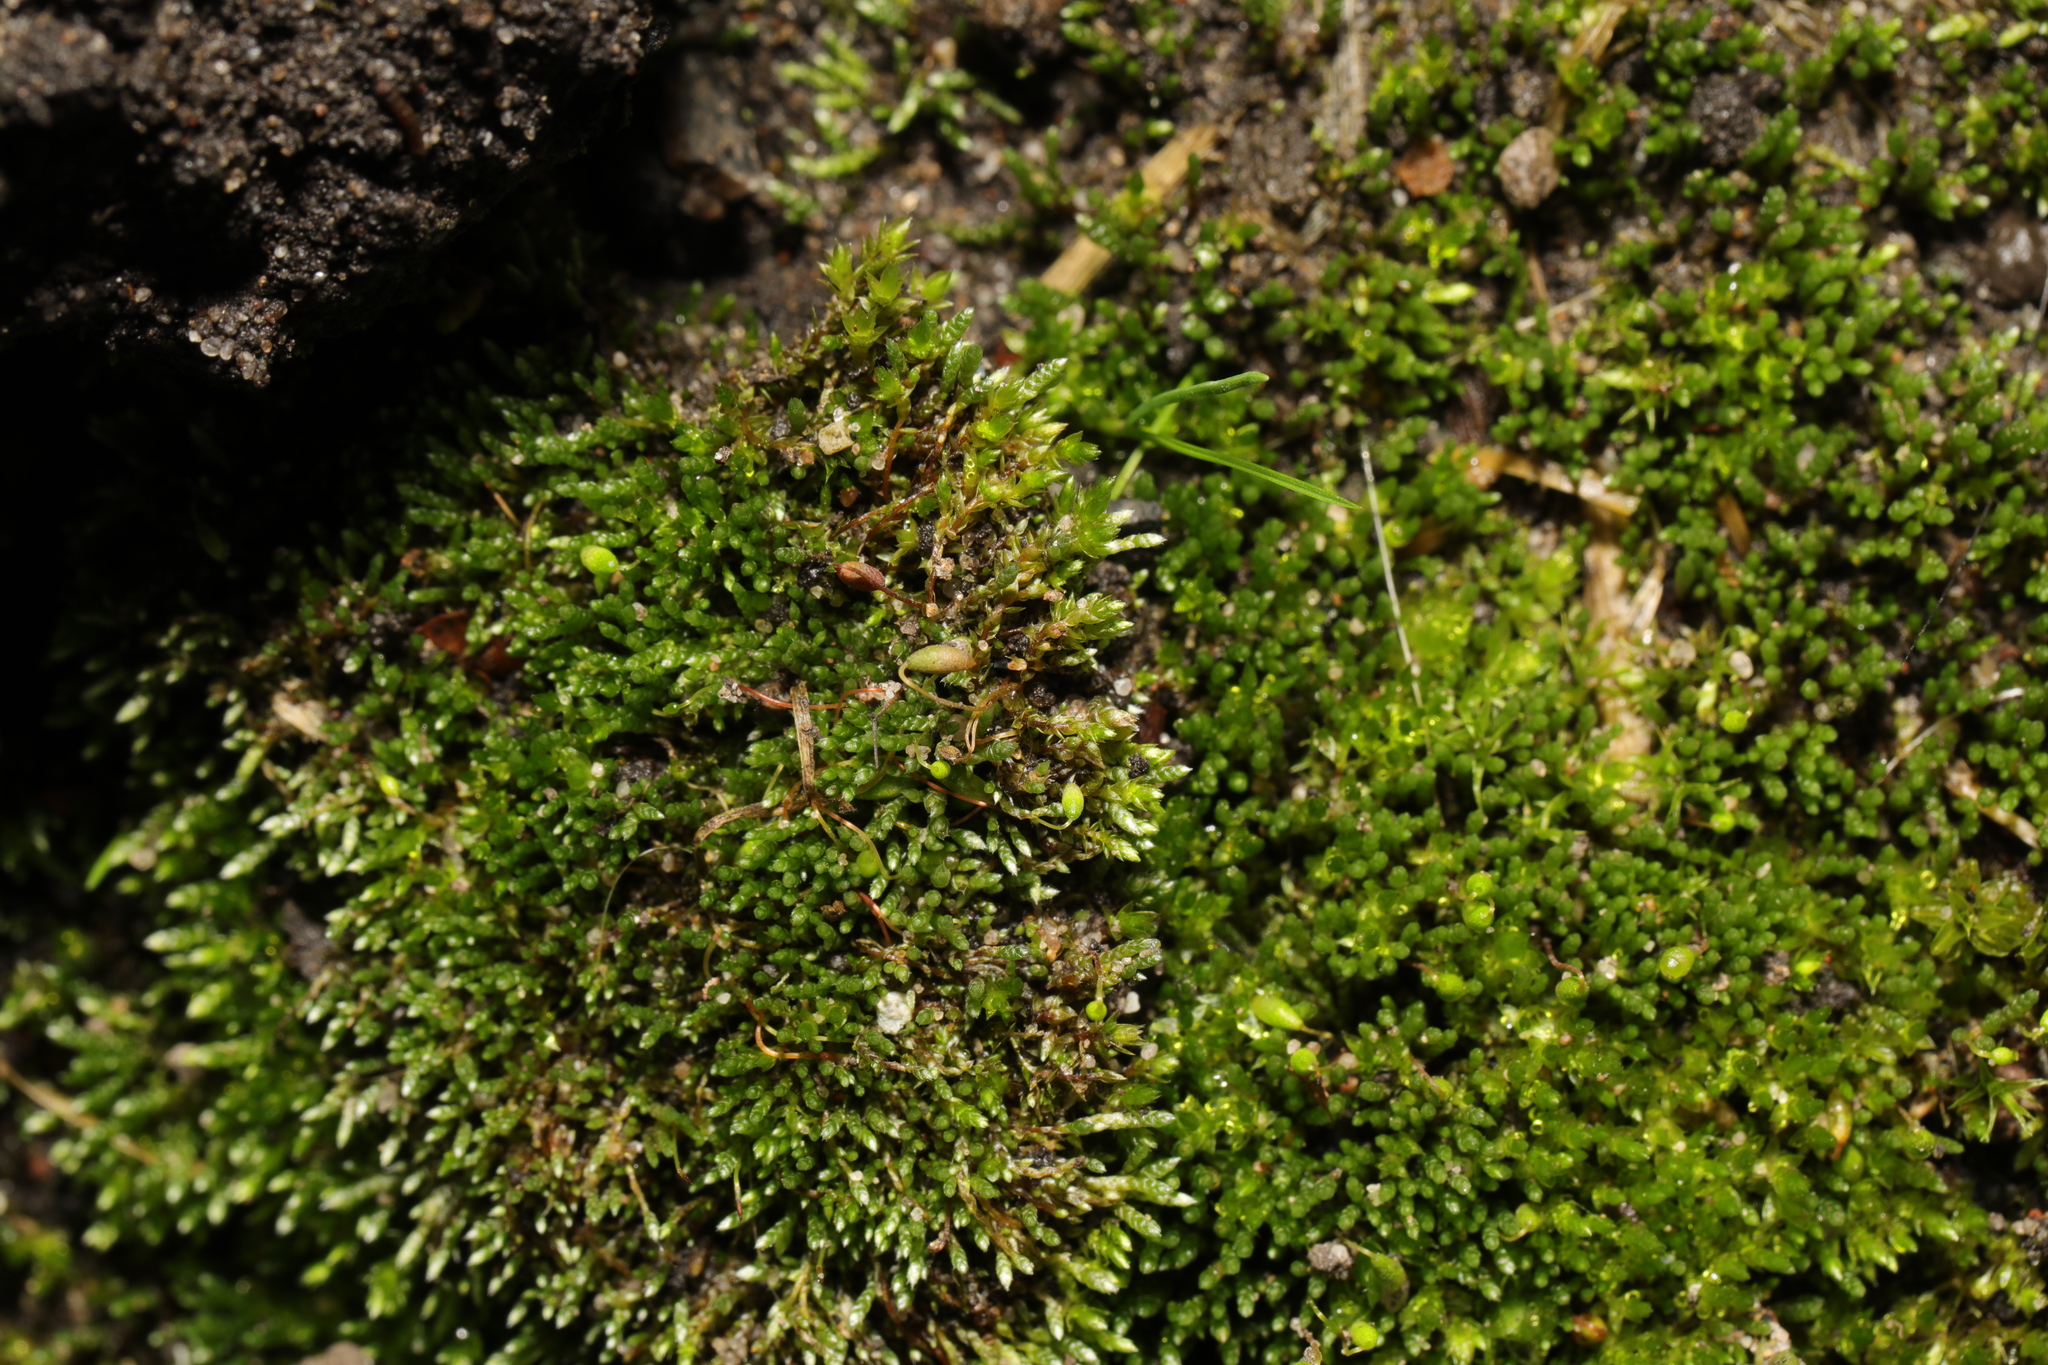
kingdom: Plantae
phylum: Bryophyta
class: Bryopsida
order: Bryales
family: Bryaceae
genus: Bryum
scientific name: Bryum argenteum
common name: Silver-moss
